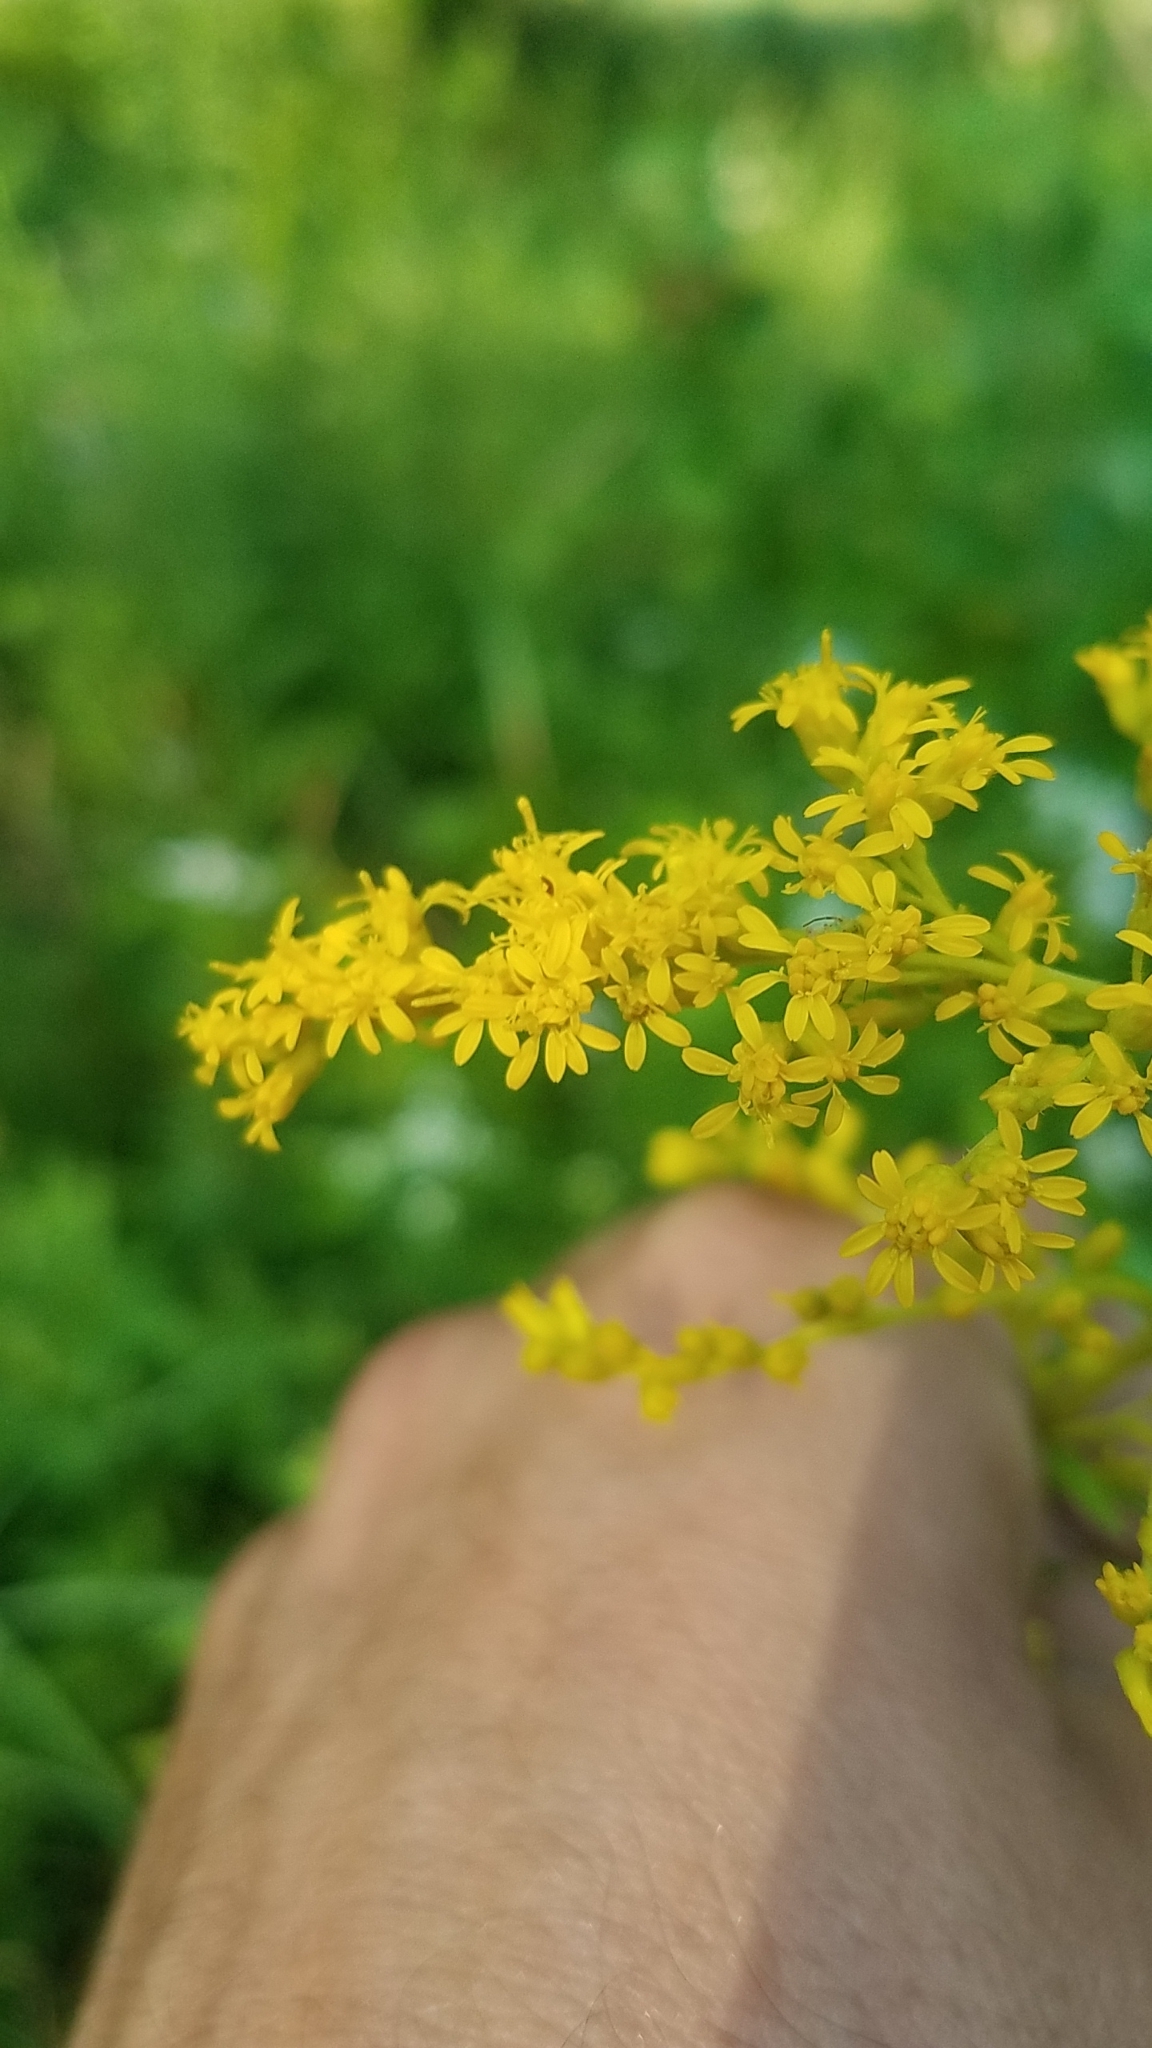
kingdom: Plantae
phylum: Tracheophyta
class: Magnoliopsida
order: Asterales
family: Asteraceae
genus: Solidago
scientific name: Solidago juncea
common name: Early goldenrod
